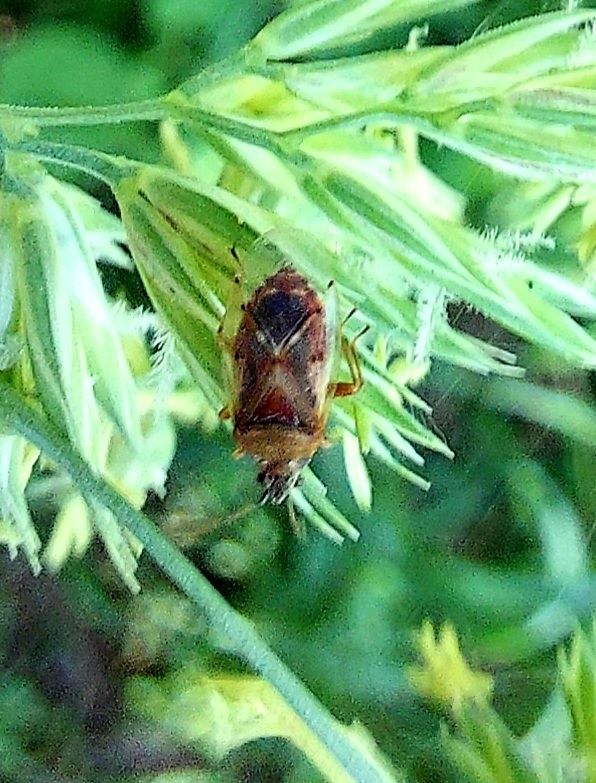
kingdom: Animalia
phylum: Arthropoda
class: Insecta
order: Hemiptera
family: Lygaeidae
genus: Kleidocerys
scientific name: Kleidocerys resedae
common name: Birch catkin bug
